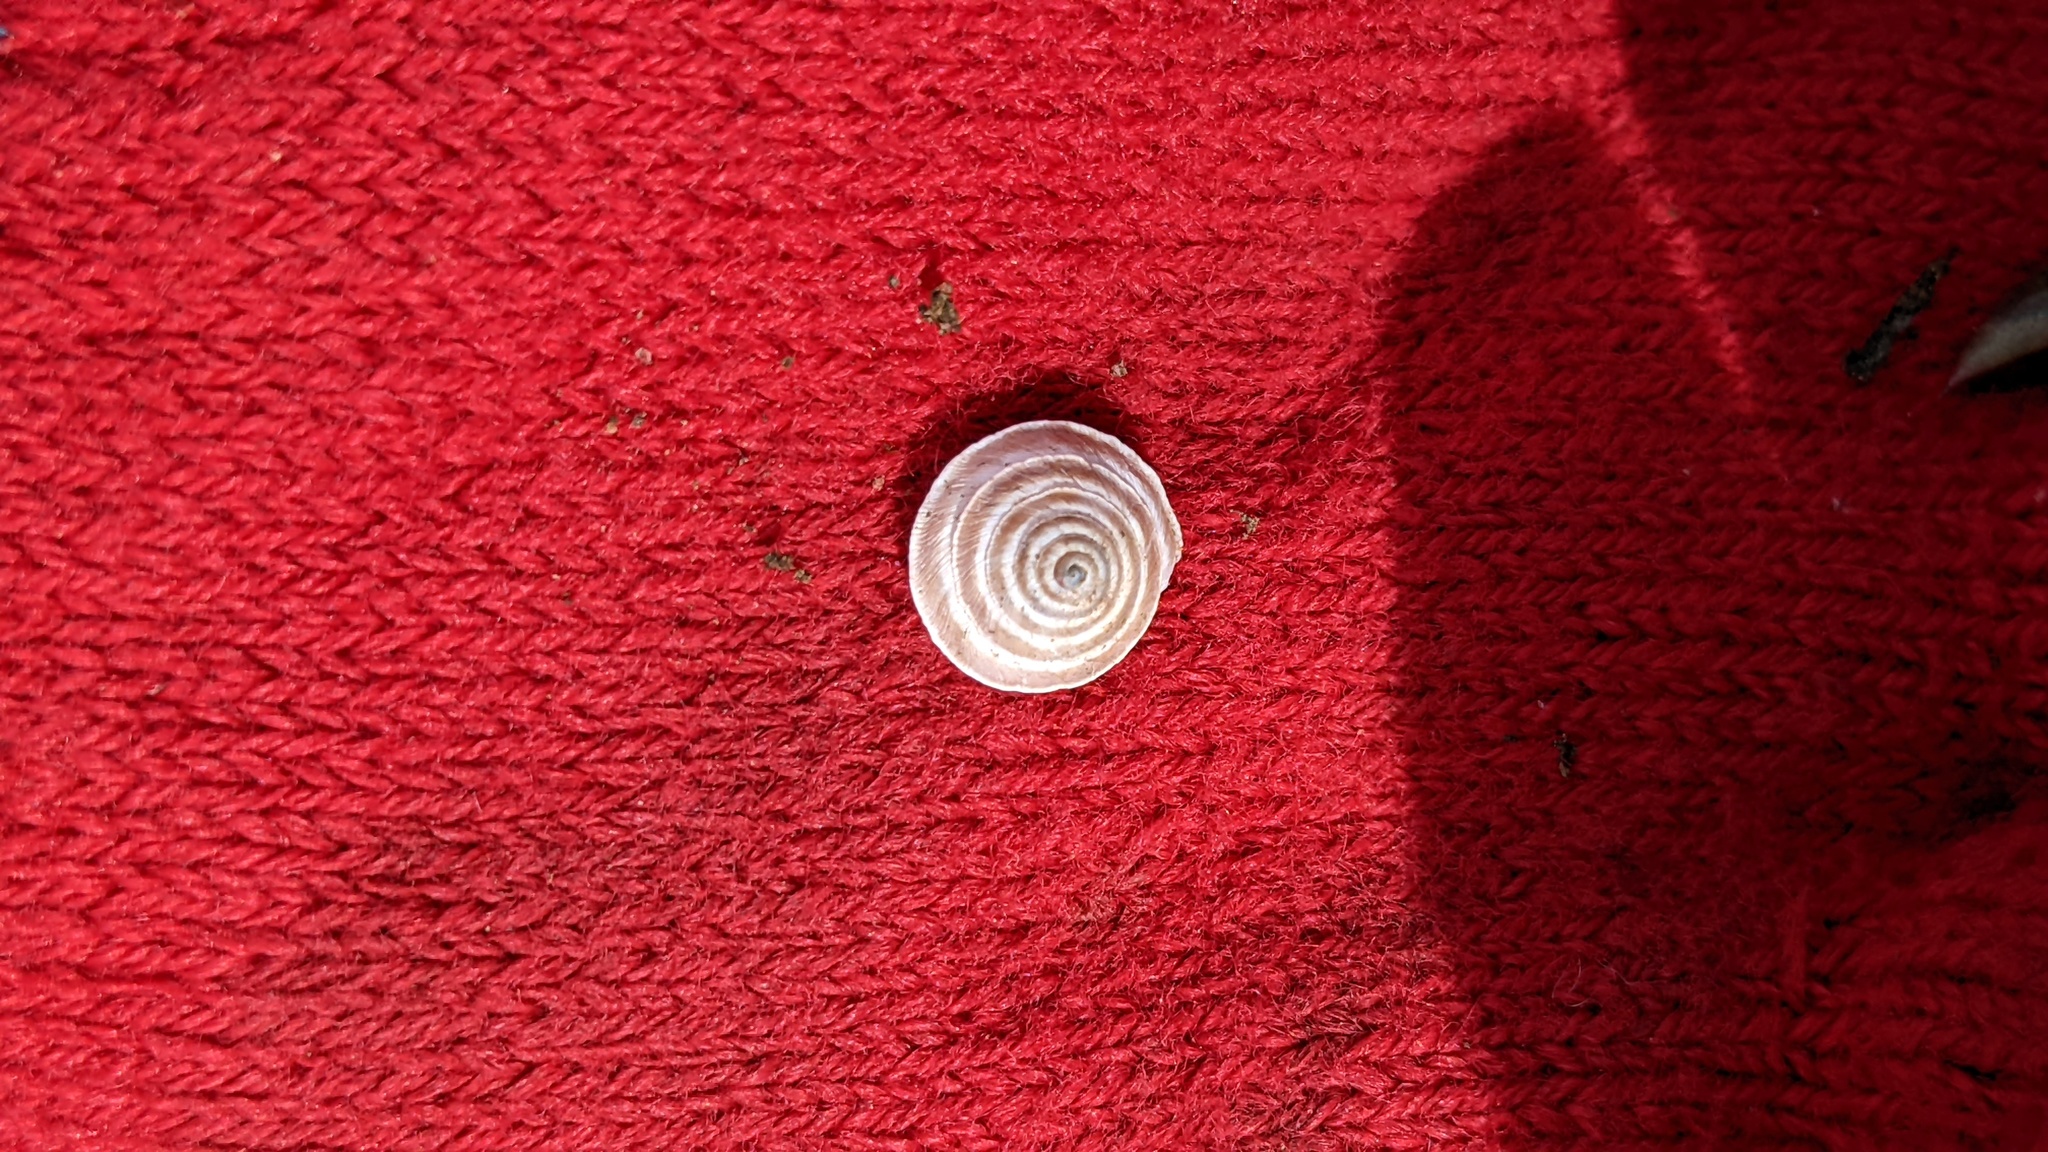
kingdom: Animalia
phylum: Mollusca
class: Gastropoda
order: Stylommatophora
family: Geomitridae
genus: Trochoidea
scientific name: Trochoidea elegans
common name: Elegant helicellid
